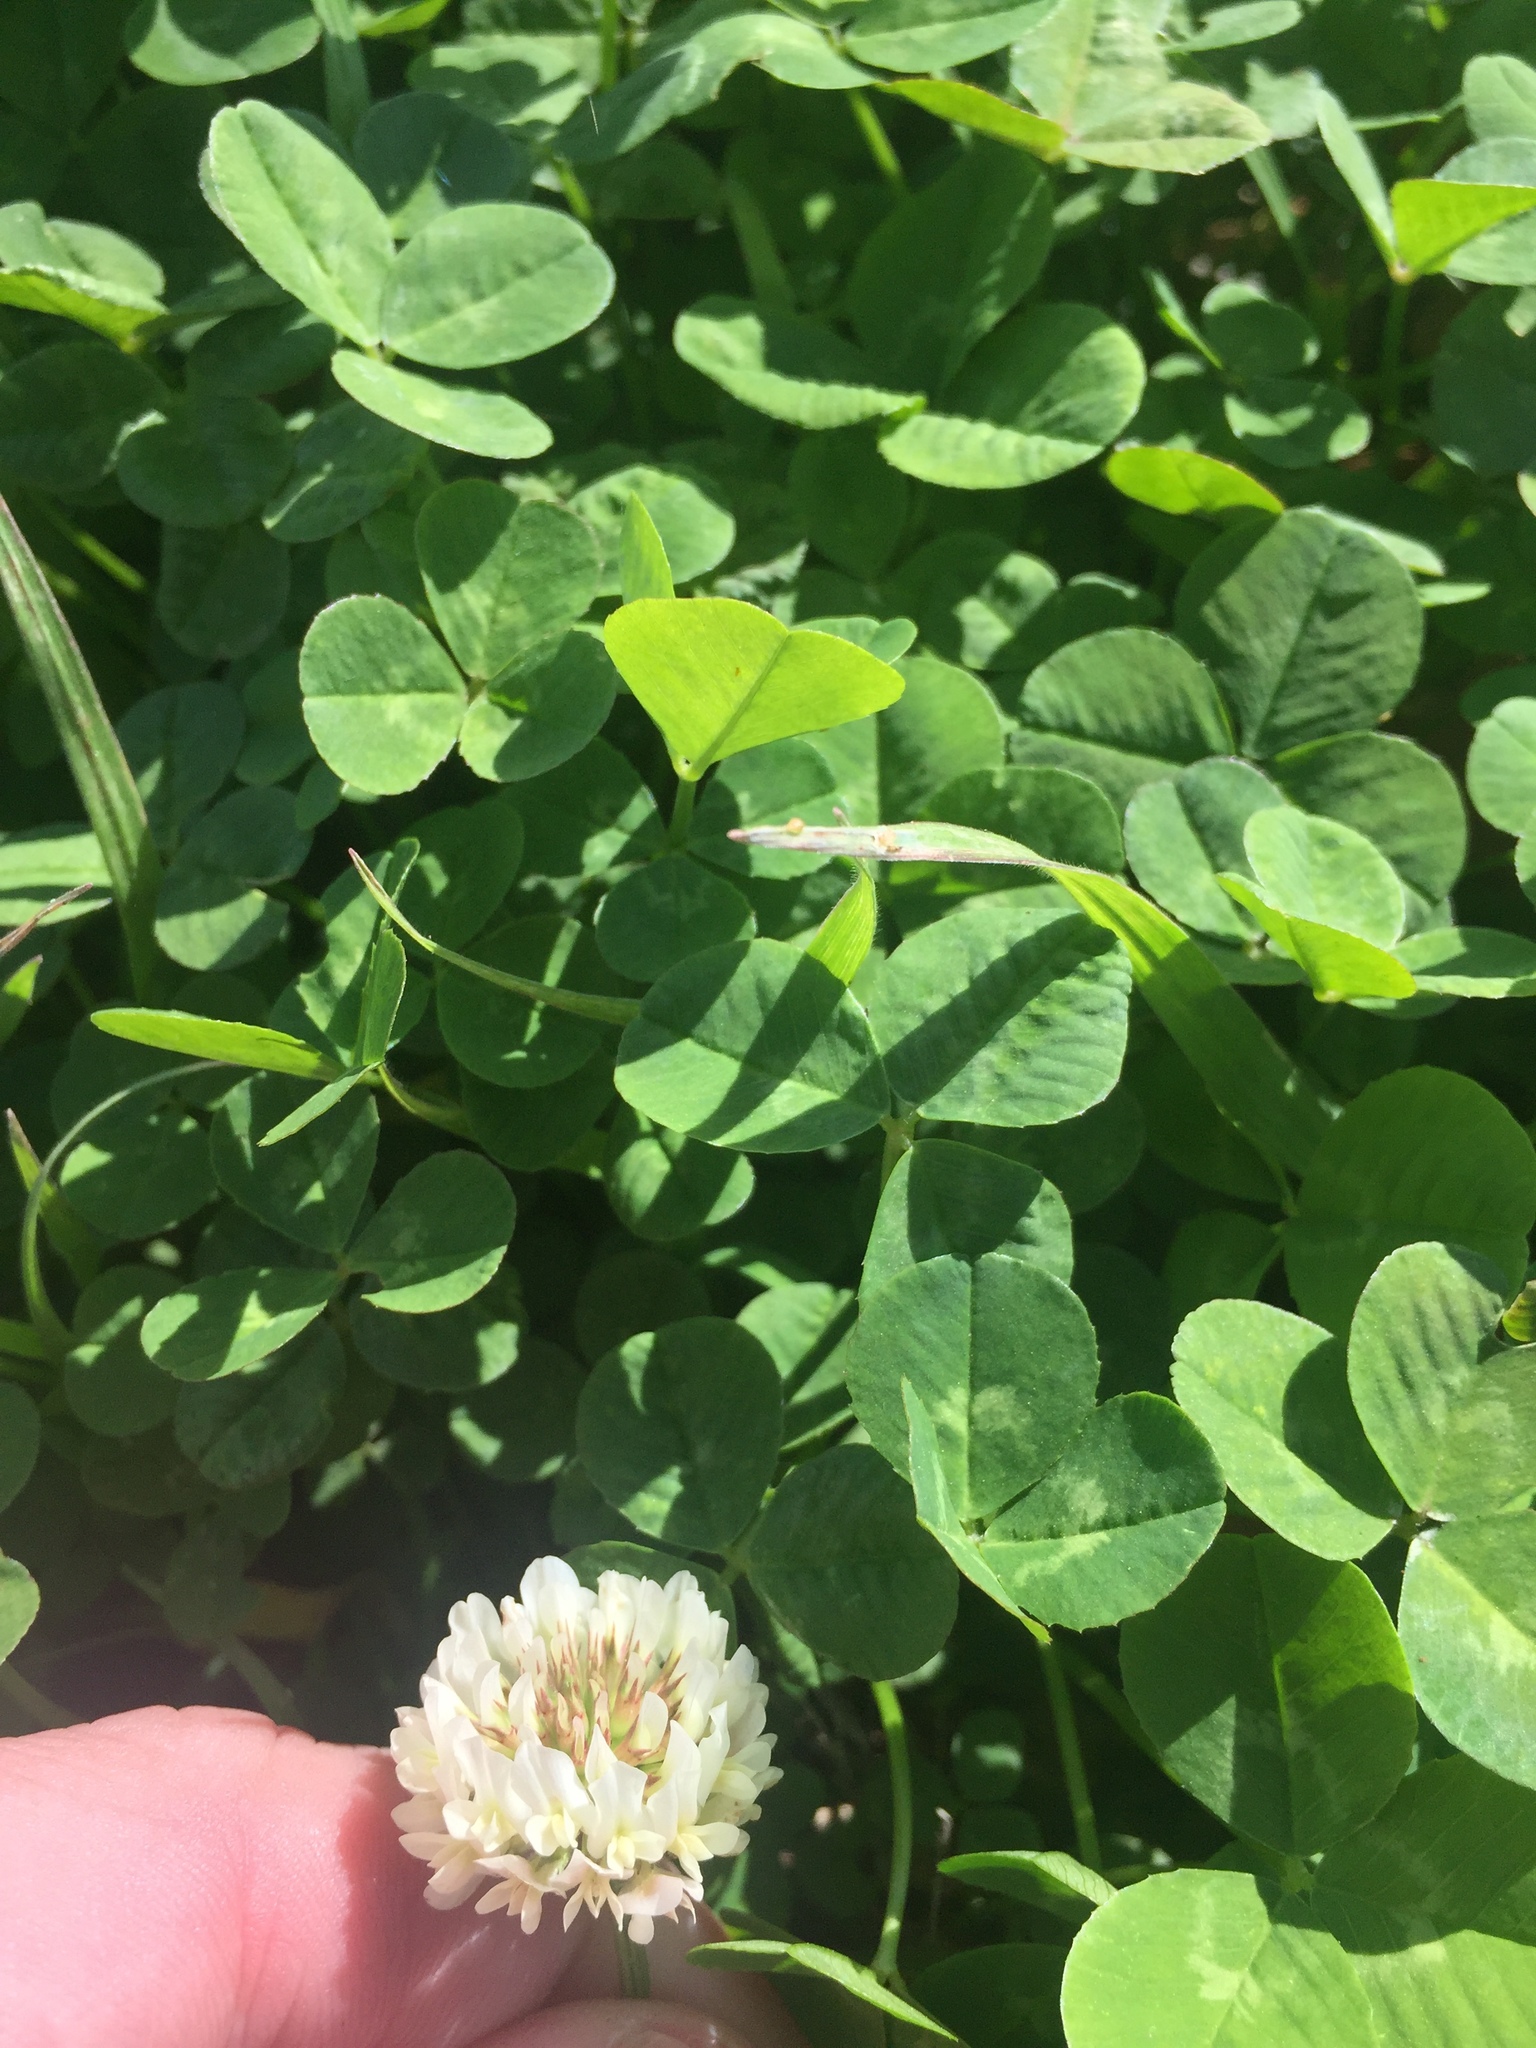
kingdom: Plantae
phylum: Tracheophyta
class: Magnoliopsida
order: Fabales
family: Fabaceae
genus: Trifolium
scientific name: Trifolium repens
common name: White clover
